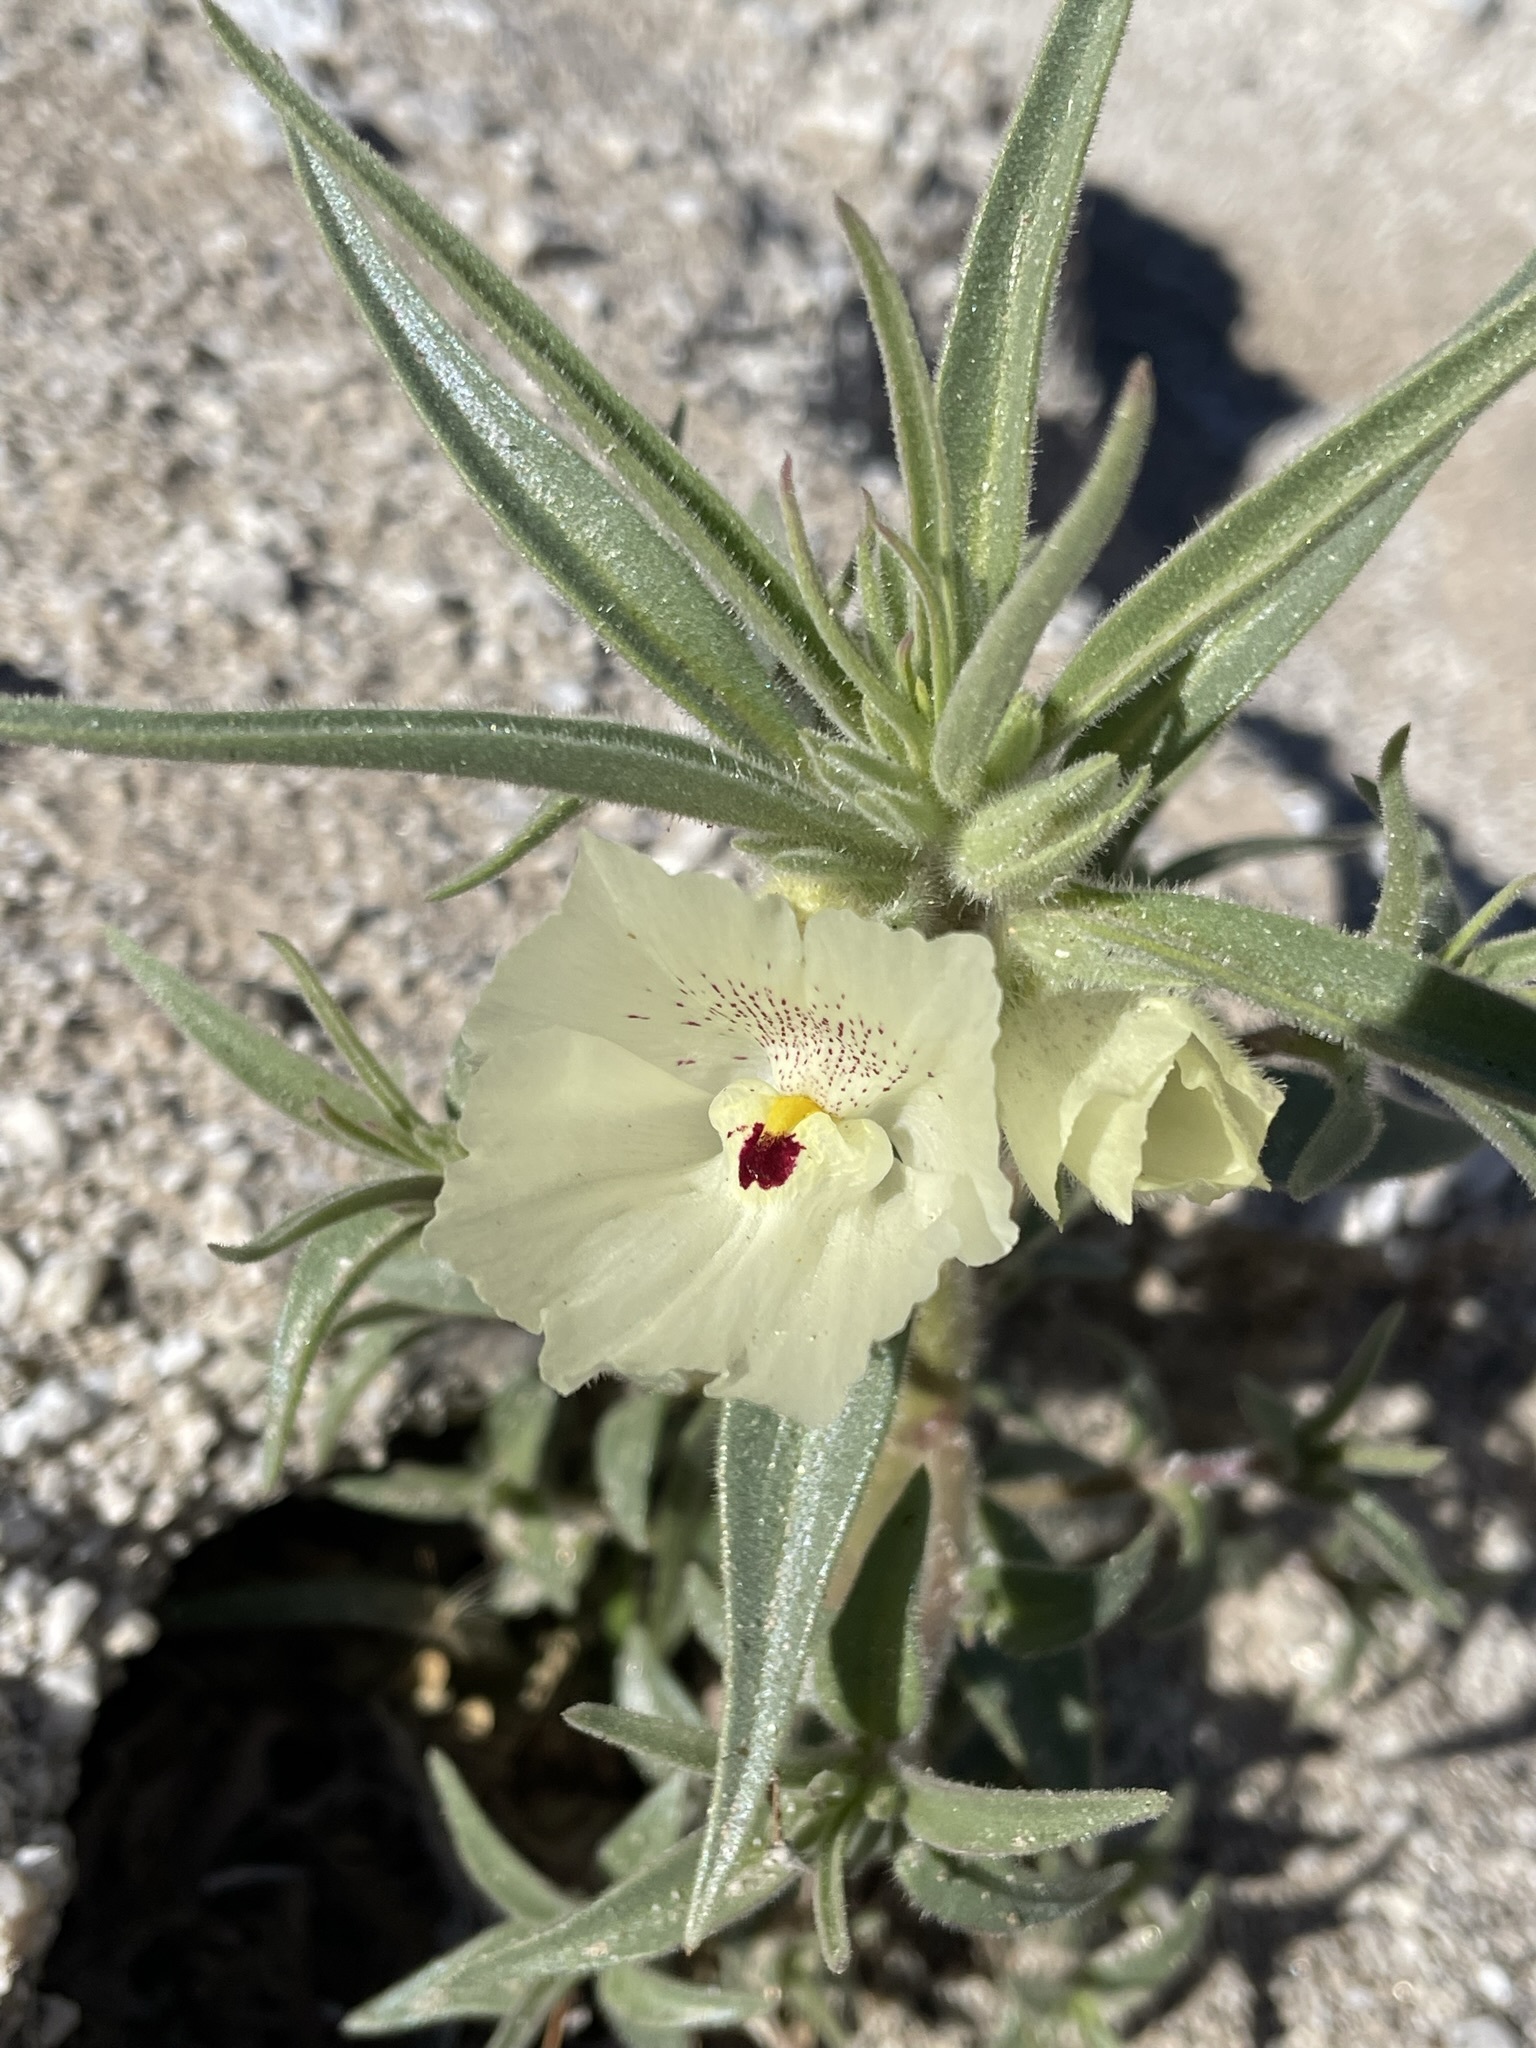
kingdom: Plantae
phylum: Tracheophyta
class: Magnoliopsida
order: Lamiales
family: Plantaginaceae
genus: Mohavea
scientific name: Mohavea confertiflora
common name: Ghost flower
